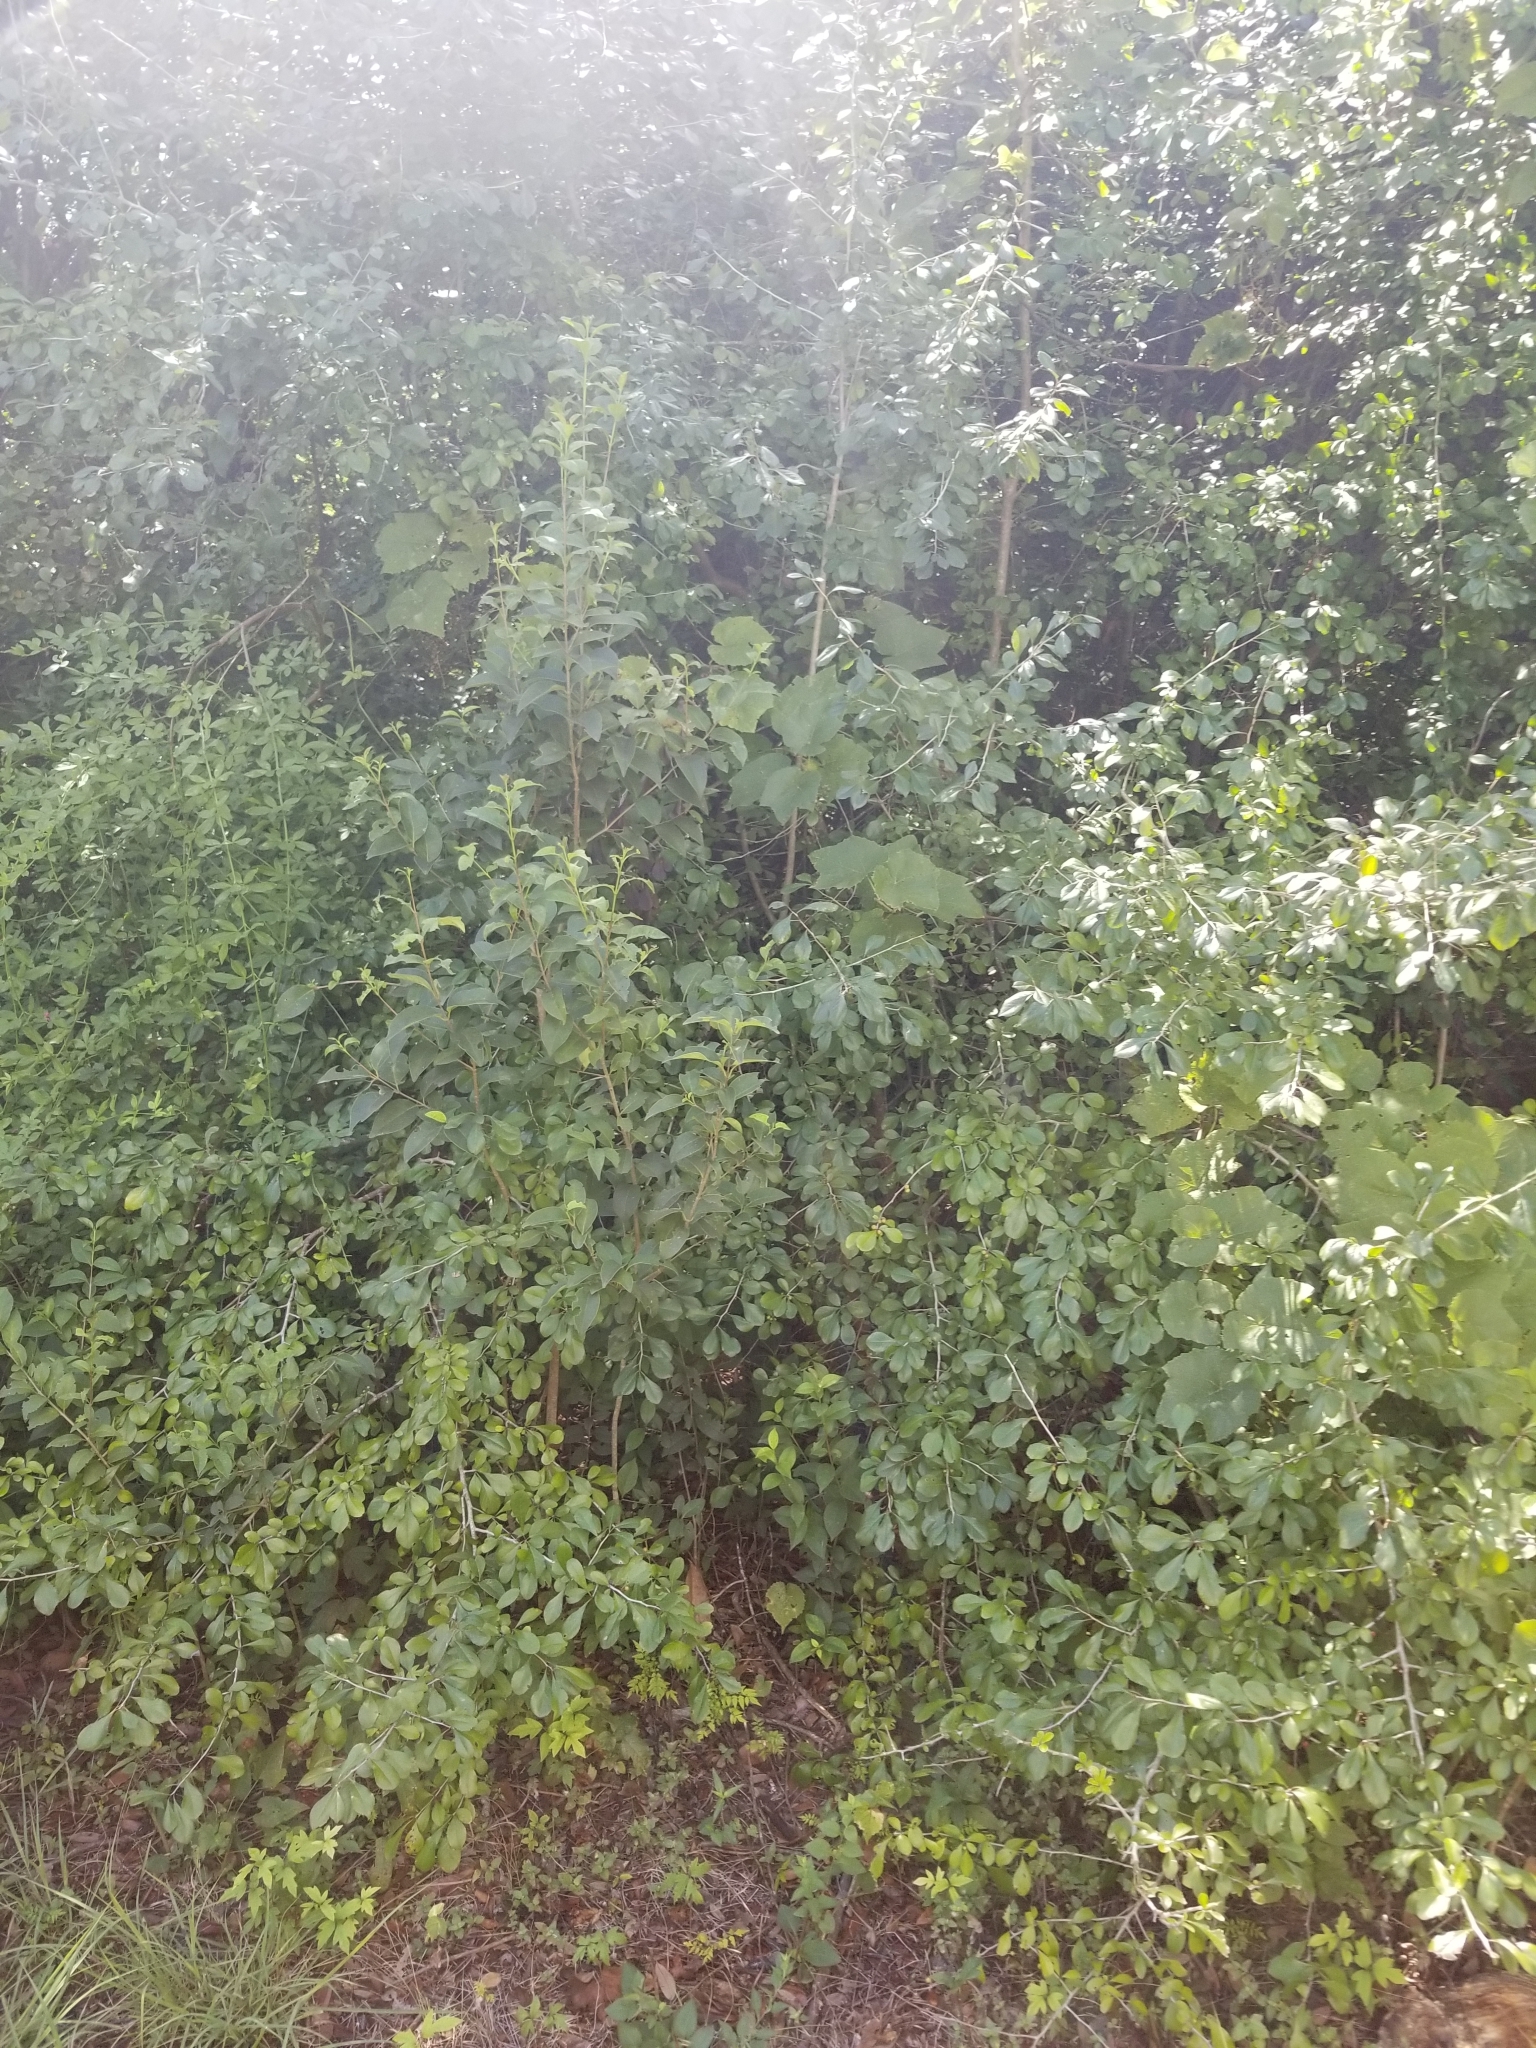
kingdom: Plantae
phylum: Tracheophyta
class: Magnoliopsida
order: Aquifoliales
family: Aquifoliaceae
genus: Ilex
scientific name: Ilex decidua
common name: Possum-haw
